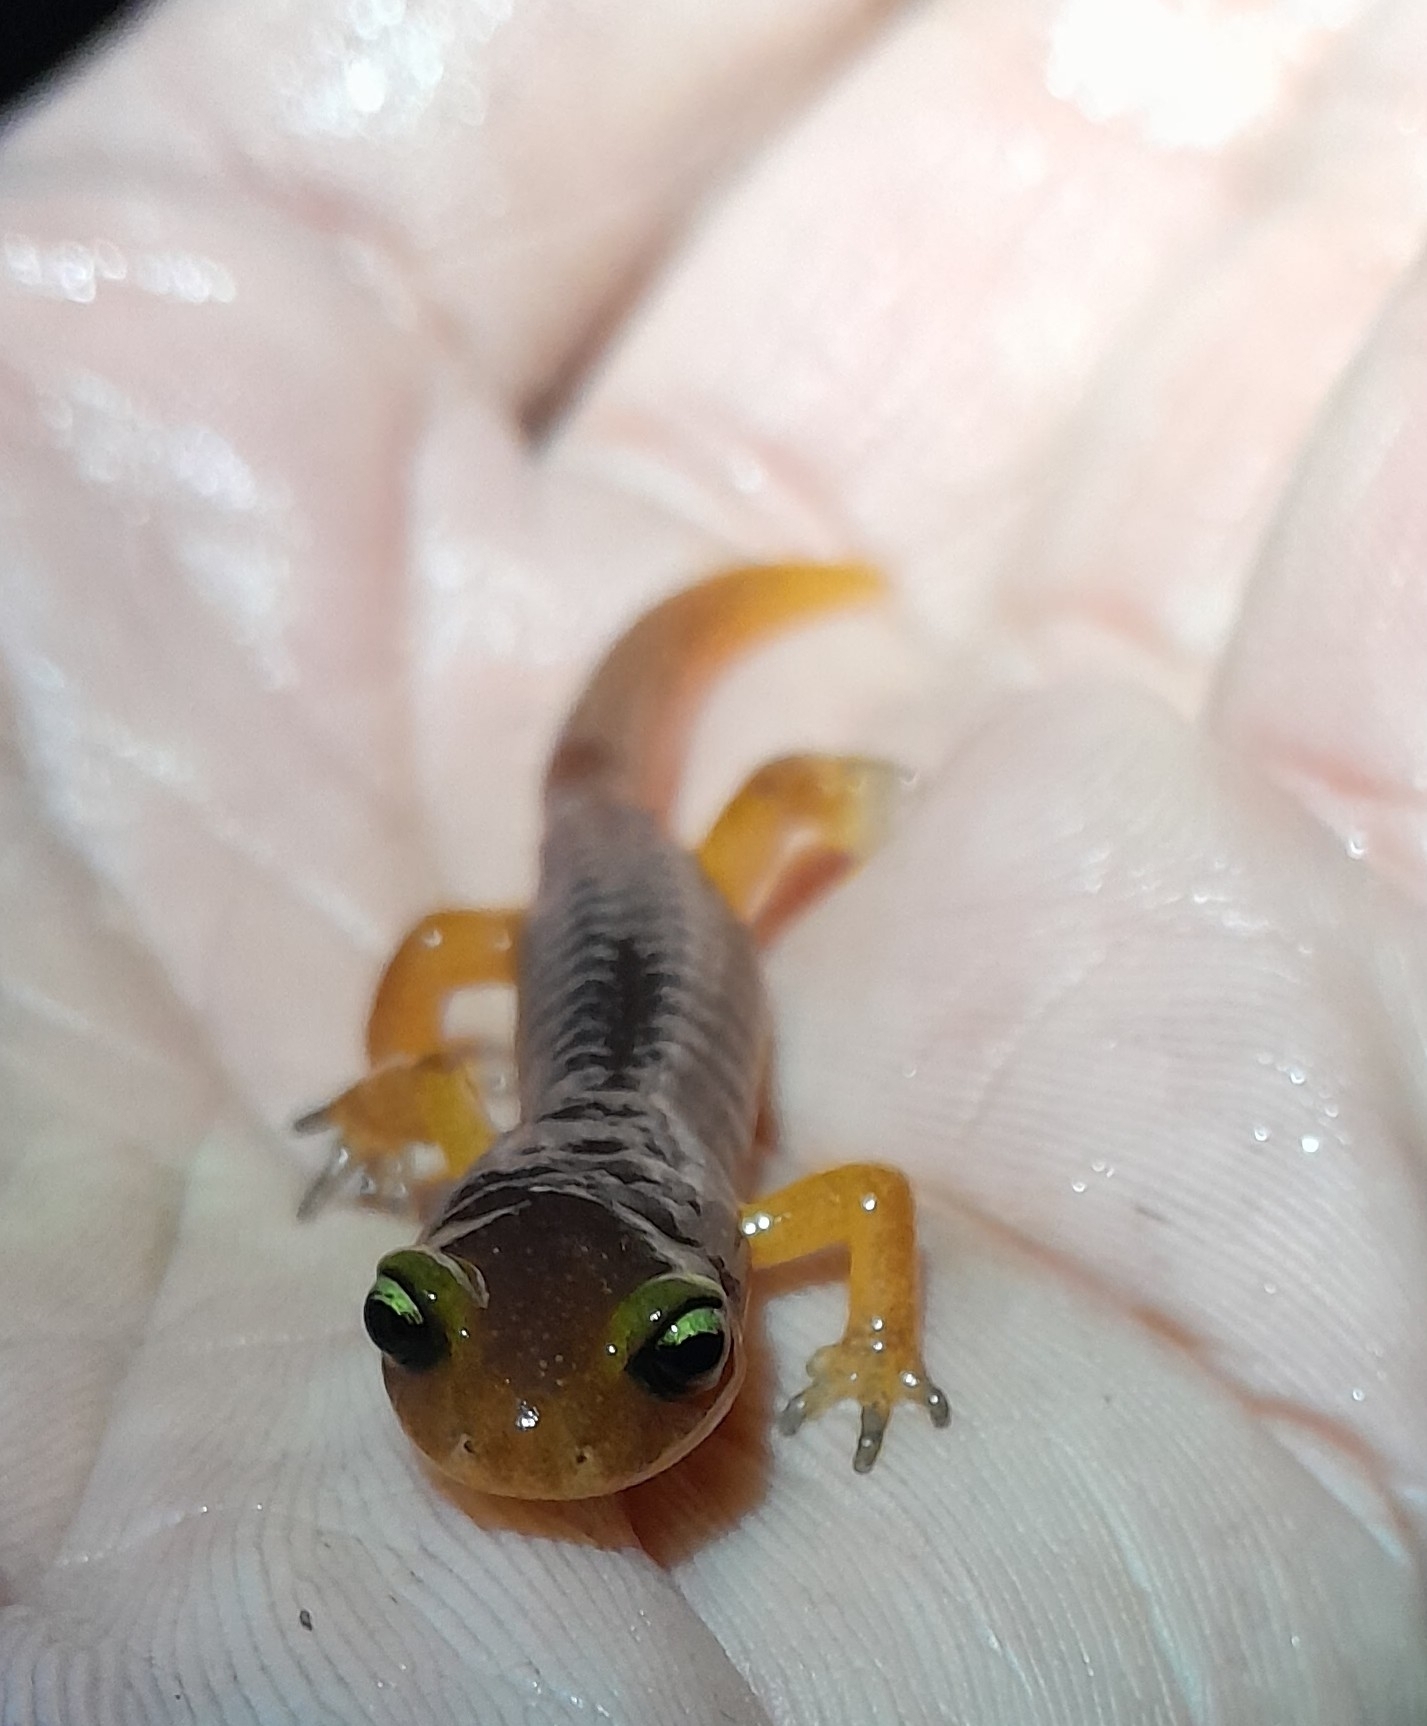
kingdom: Animalia
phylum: Chordata
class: Amphibia
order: Caudata
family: Plethodontidae
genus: Ensatina
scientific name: Ensatina eschscholtzii
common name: Ensatina
